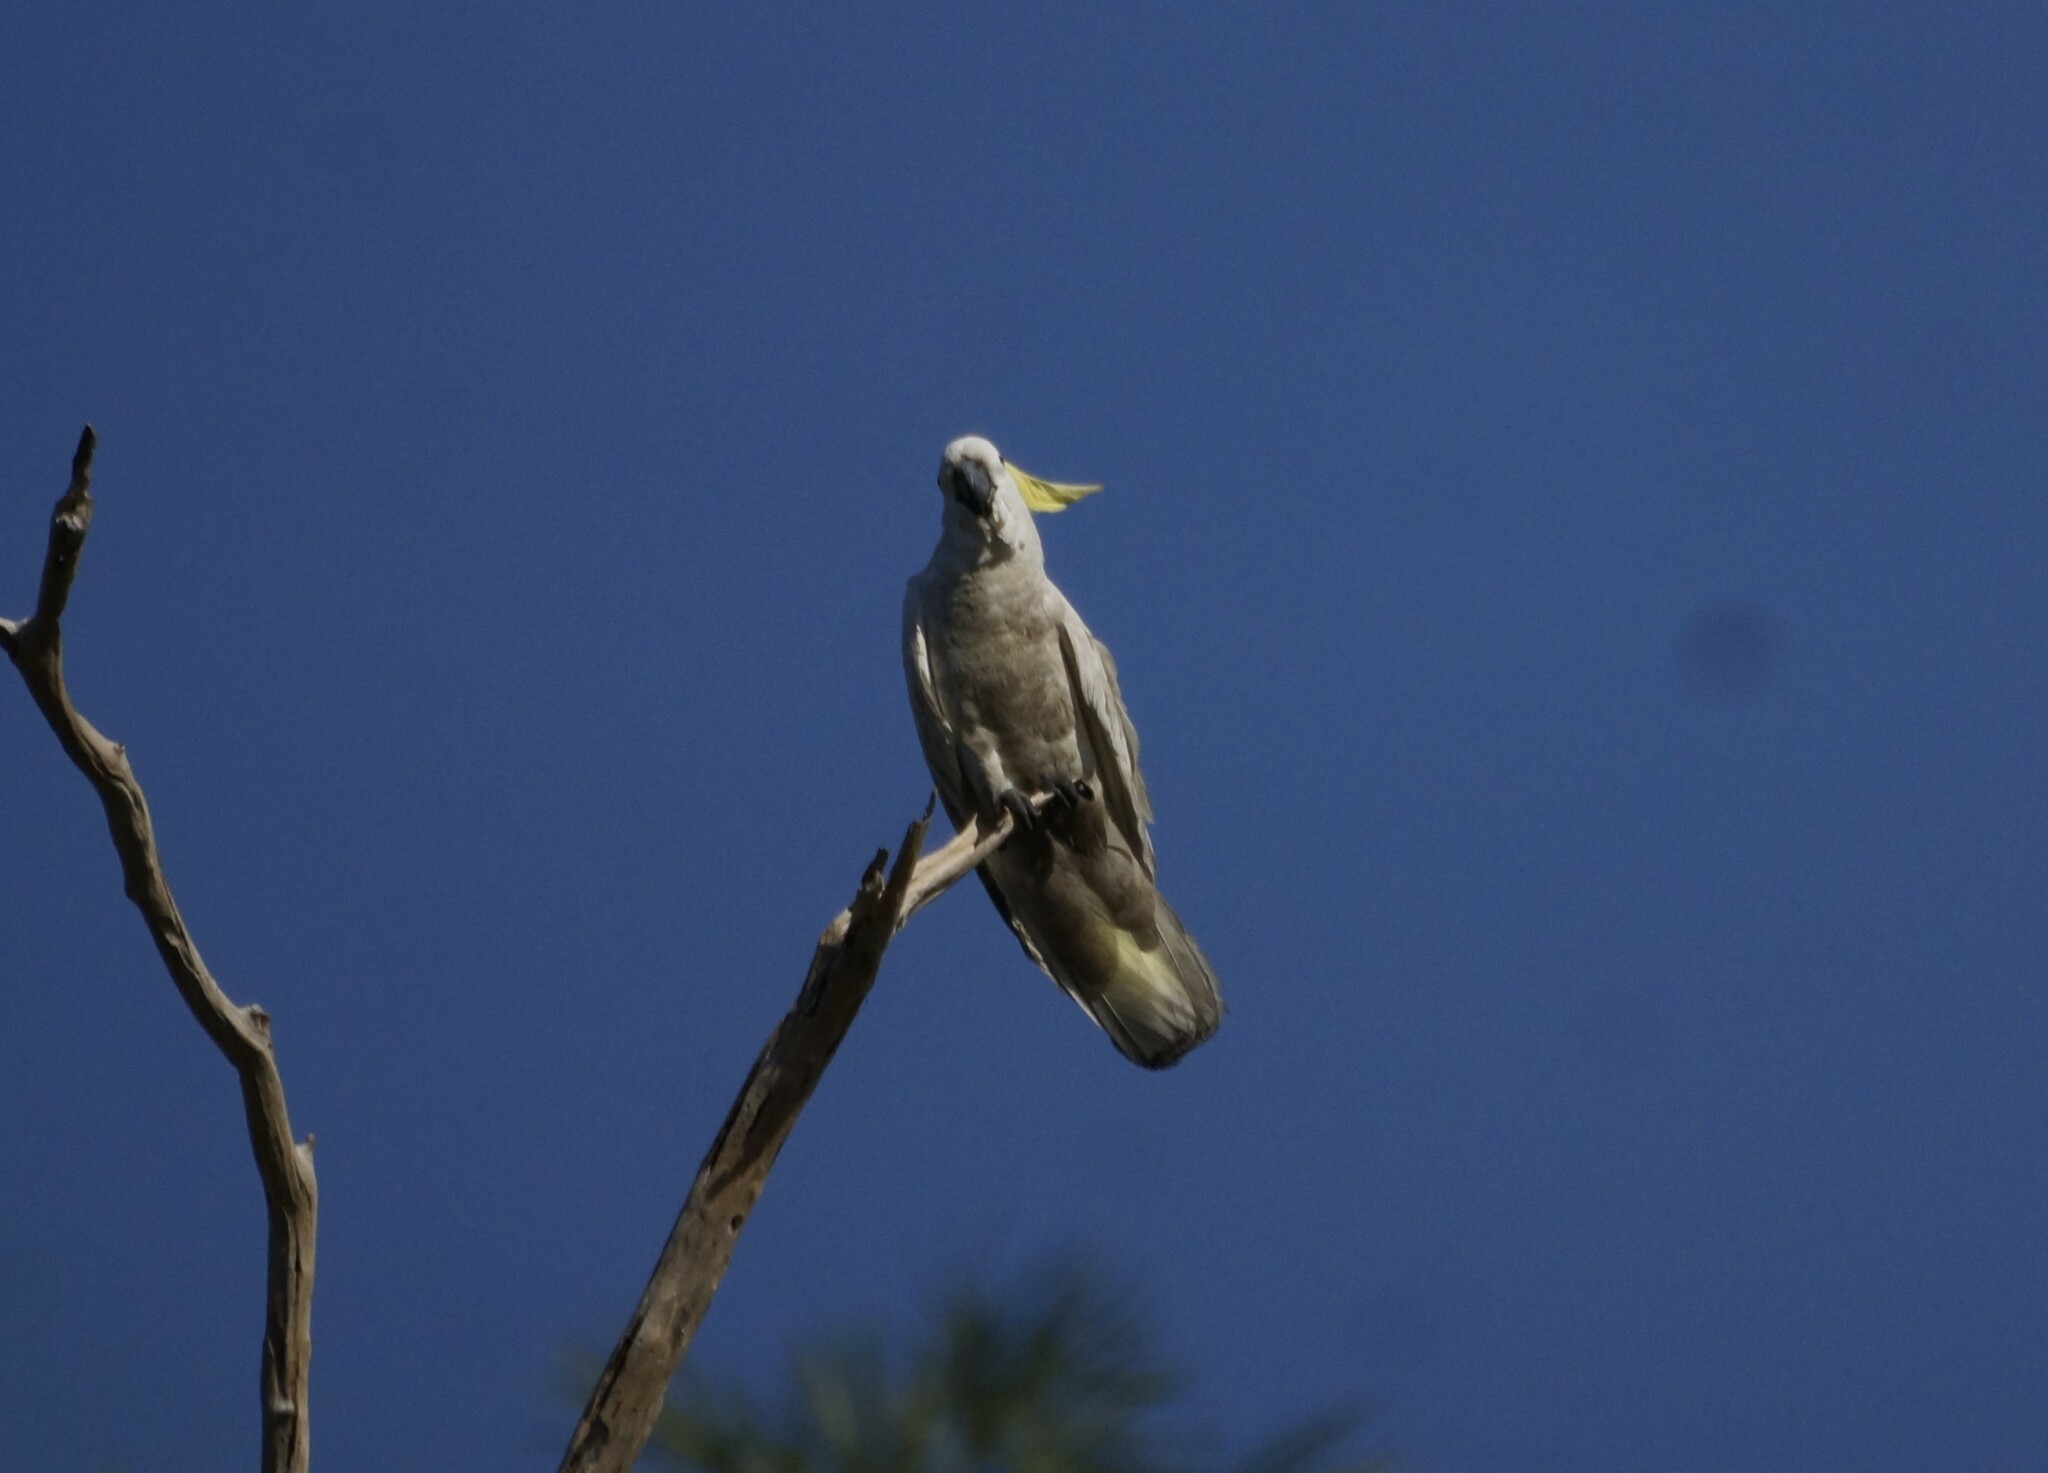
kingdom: Animalia
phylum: Chordata
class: Aves
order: Psittaciformes
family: Psittacidae
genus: Cacatua
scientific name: Cacatua galerita
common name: Sulphur-crested cockatoo
